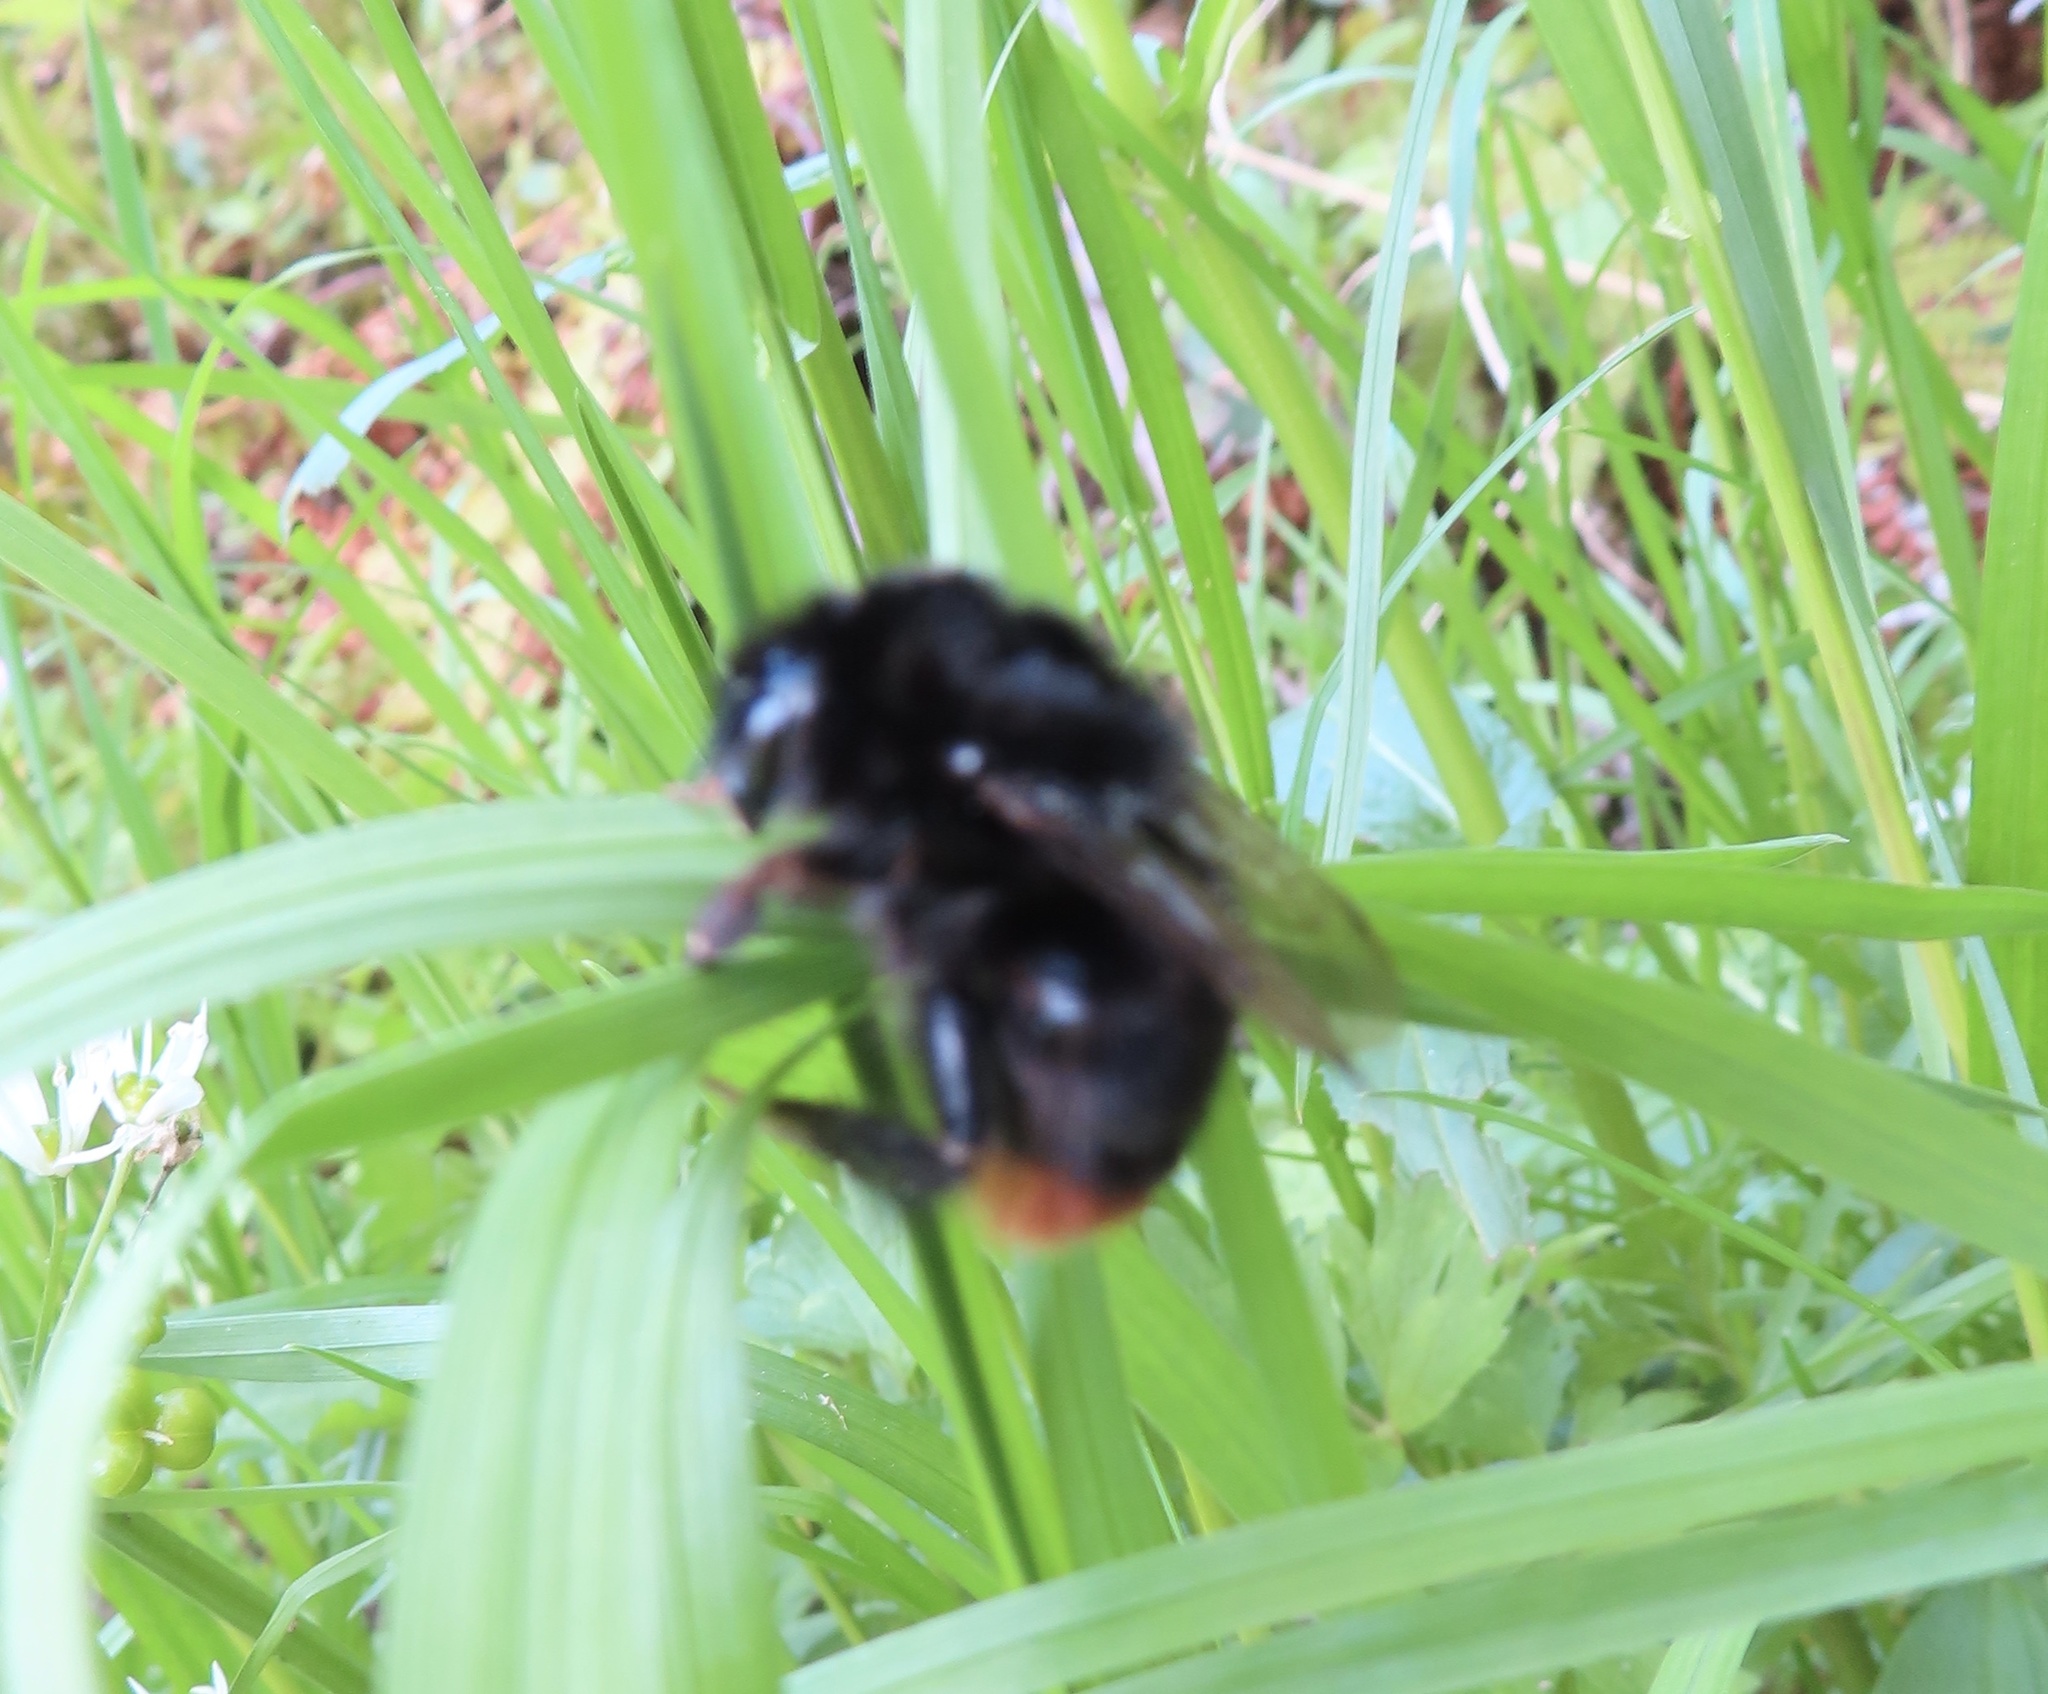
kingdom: Animalia
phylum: Arthropoda
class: Insecta
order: Hymenoptera
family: Apidae
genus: Bombus
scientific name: Bombus lapidarius
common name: Large red-tailed humble-bee
